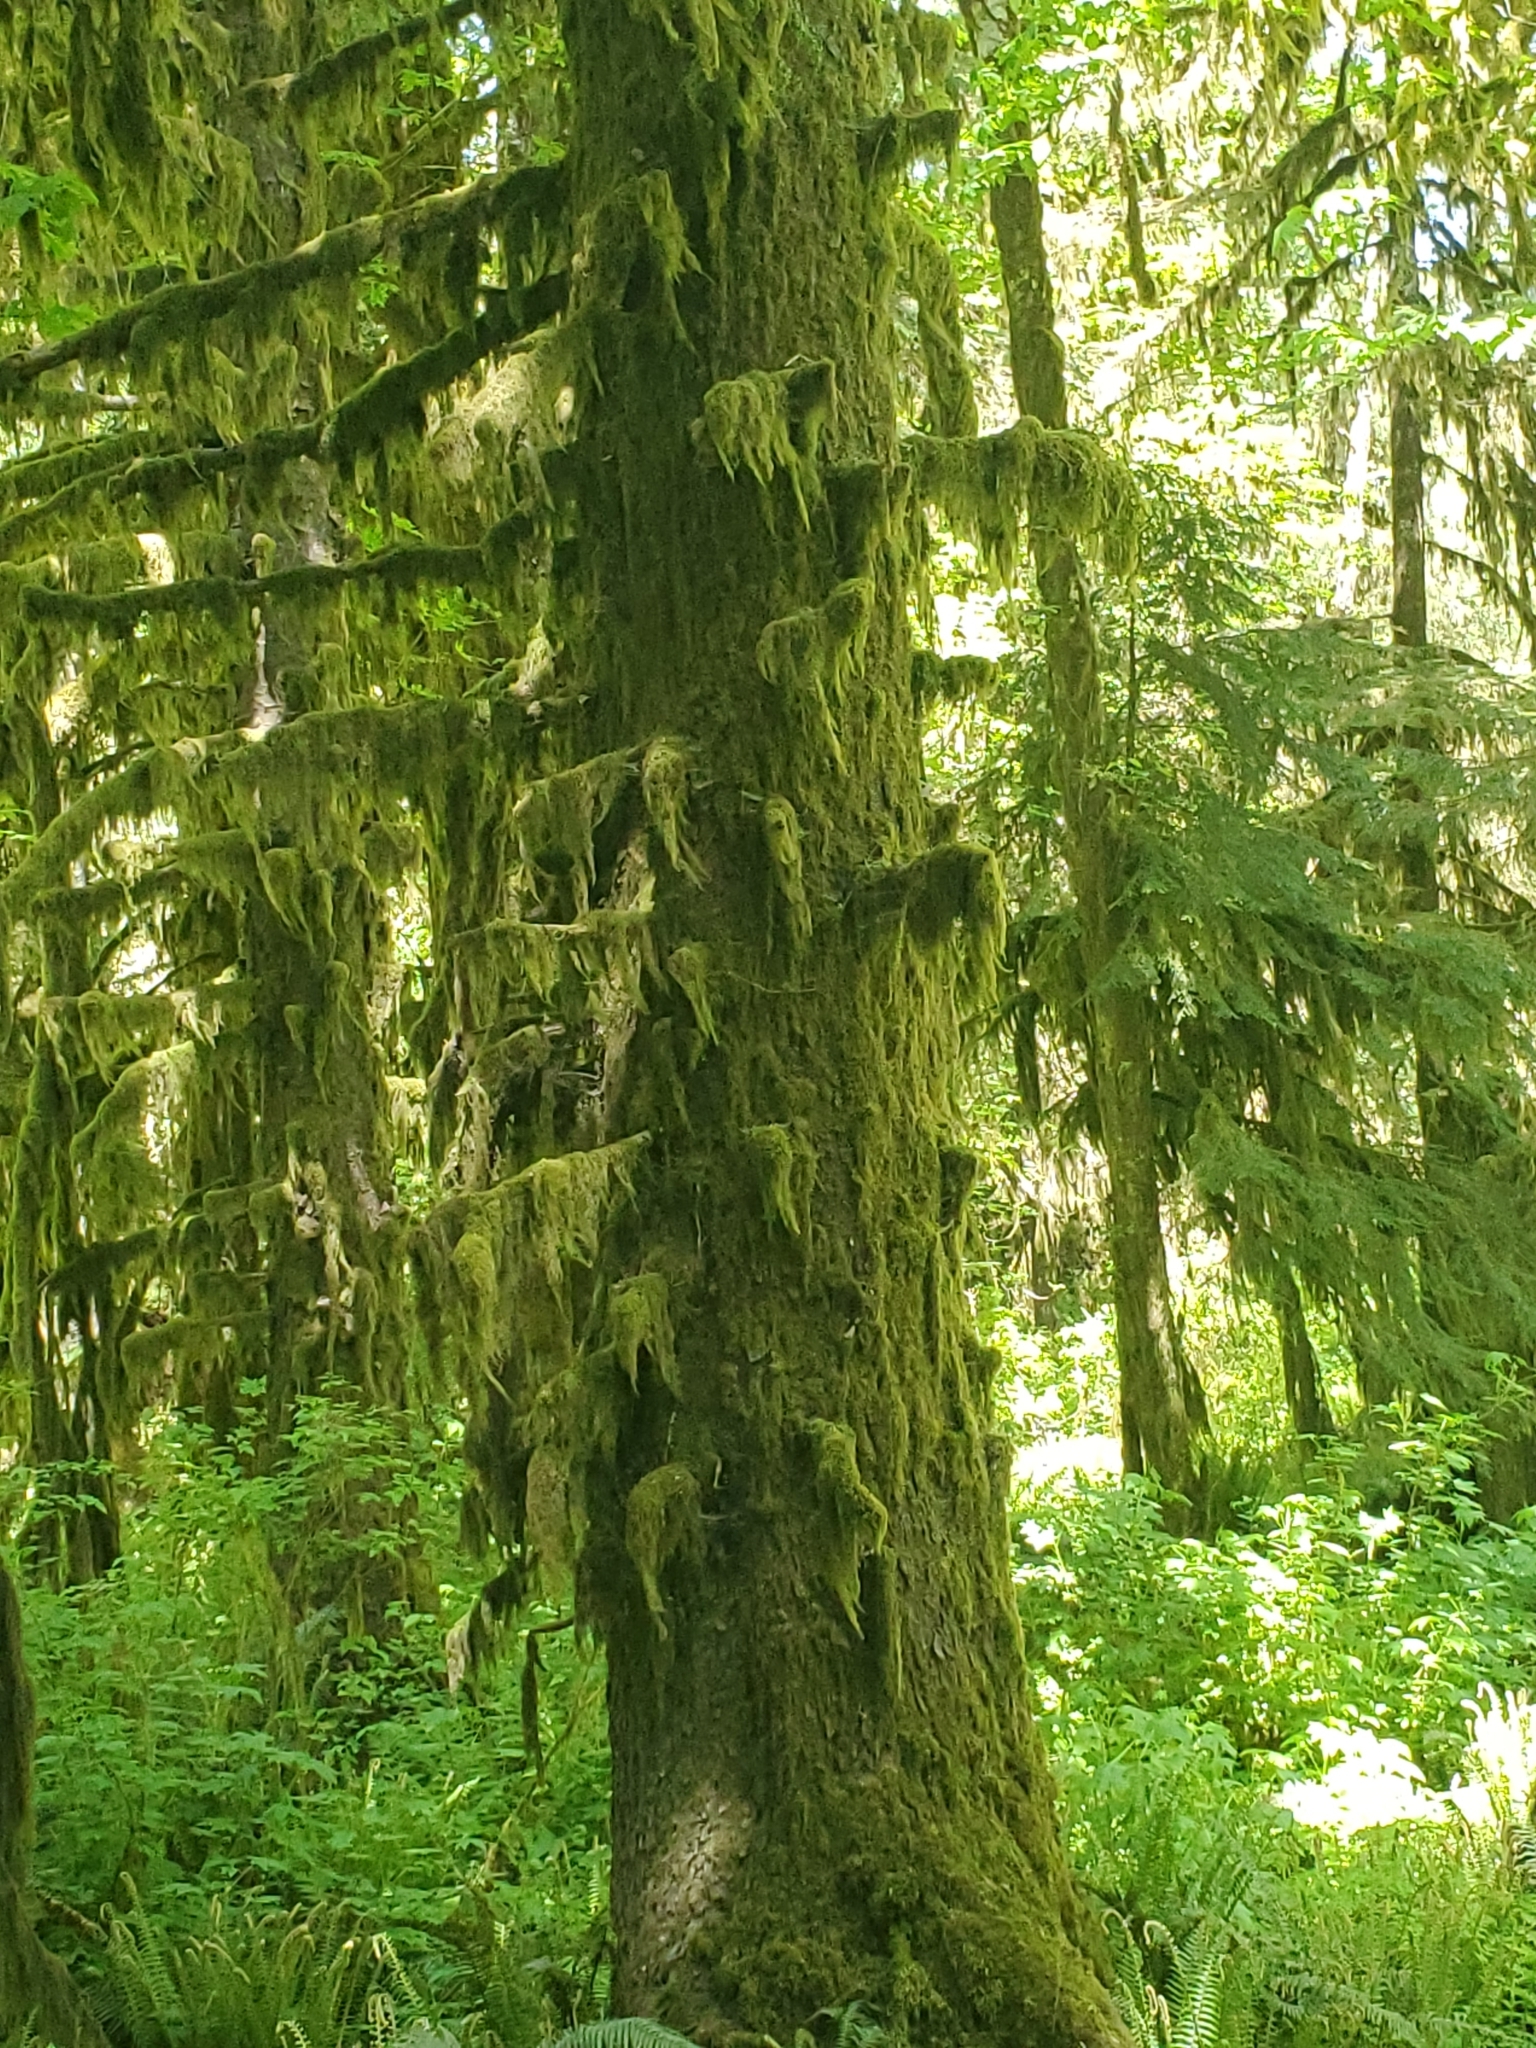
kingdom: Plantae
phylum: Tracheophyta
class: Pinopsida
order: Pinales
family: Pinaceae
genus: Picea
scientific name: Picea sitchensis
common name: Sitka spruce
